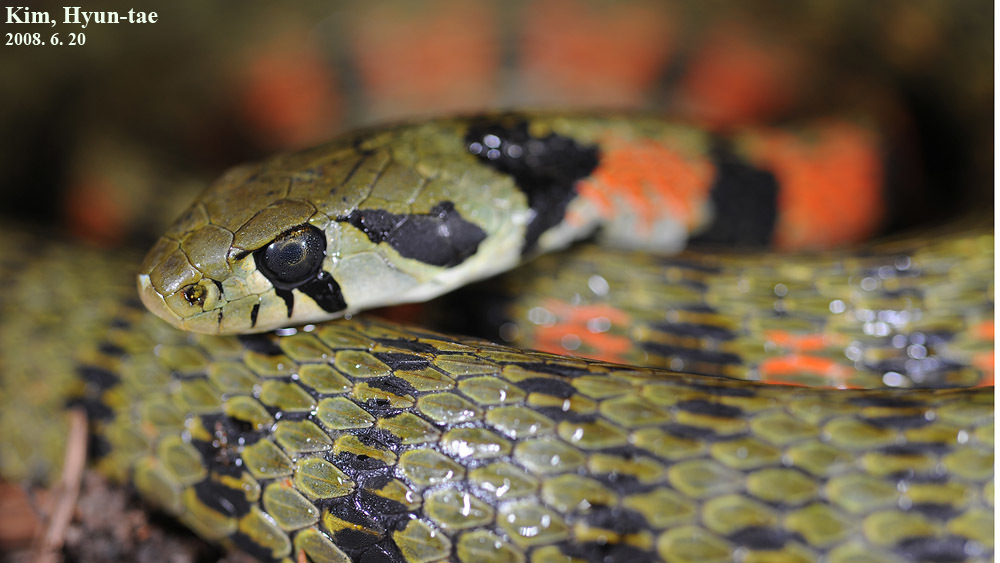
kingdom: Animalia
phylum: Chordata
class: Squamata
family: Colubridae
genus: Rhabdophis
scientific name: Rhabdophis tigrinus
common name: Tiger keelback
